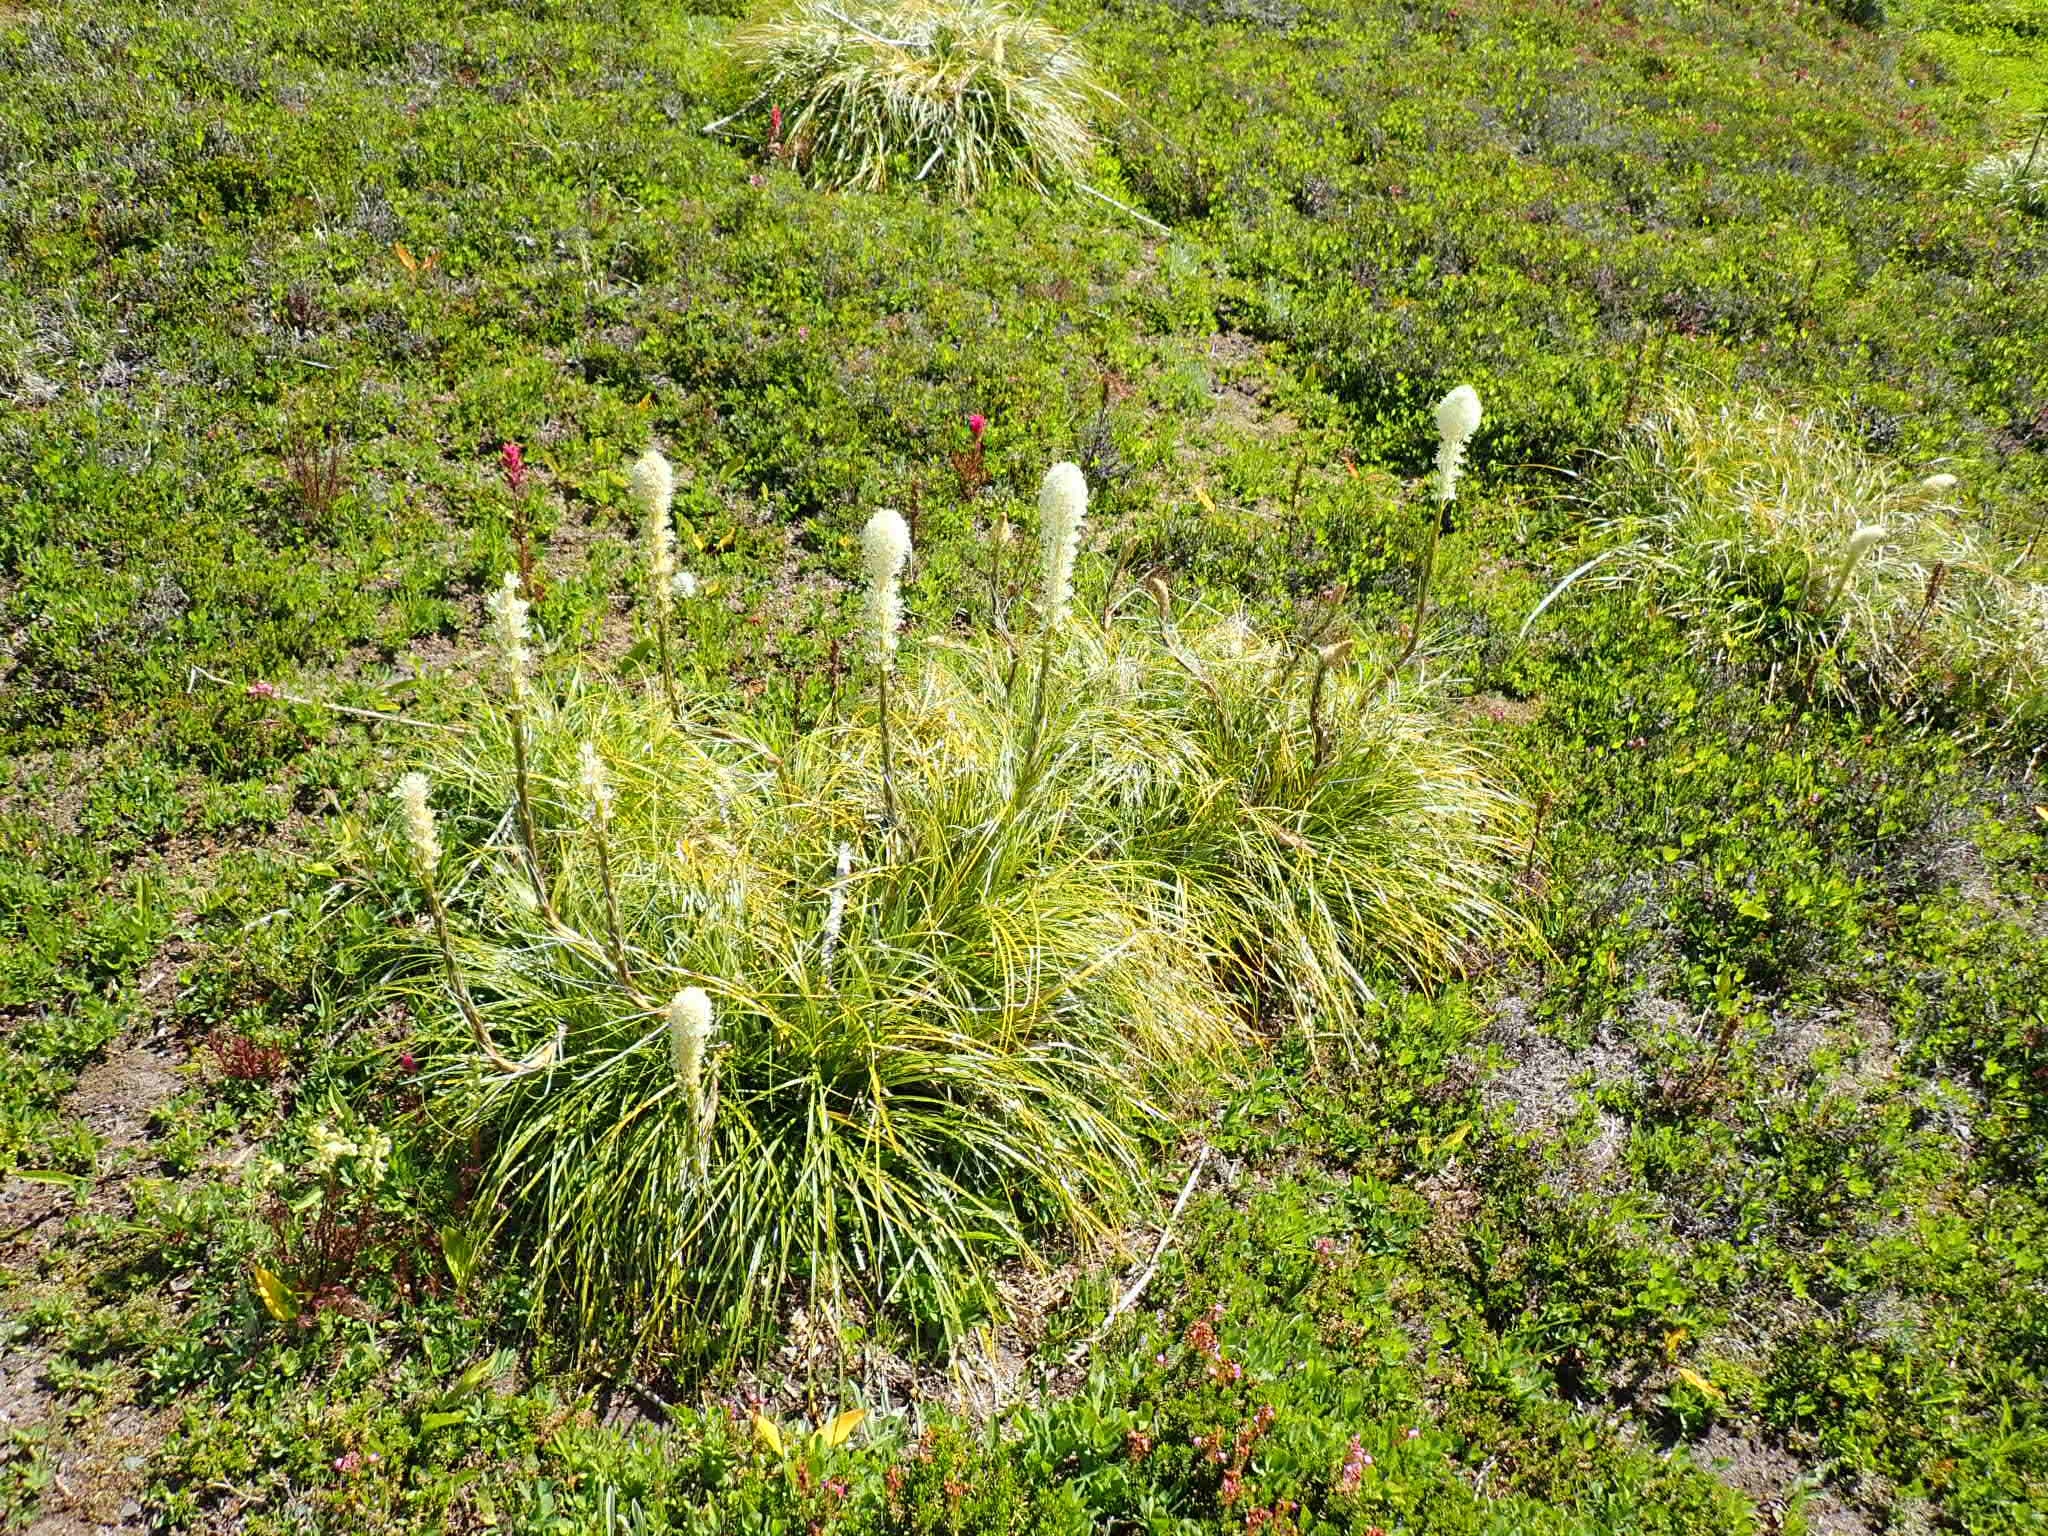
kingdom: Plantae
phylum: Tracheophyta
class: Liliopsida
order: Liliales
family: Melanthiaceae
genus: Xerophyllum
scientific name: Xerophyllum tenax
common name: Bear-grass
